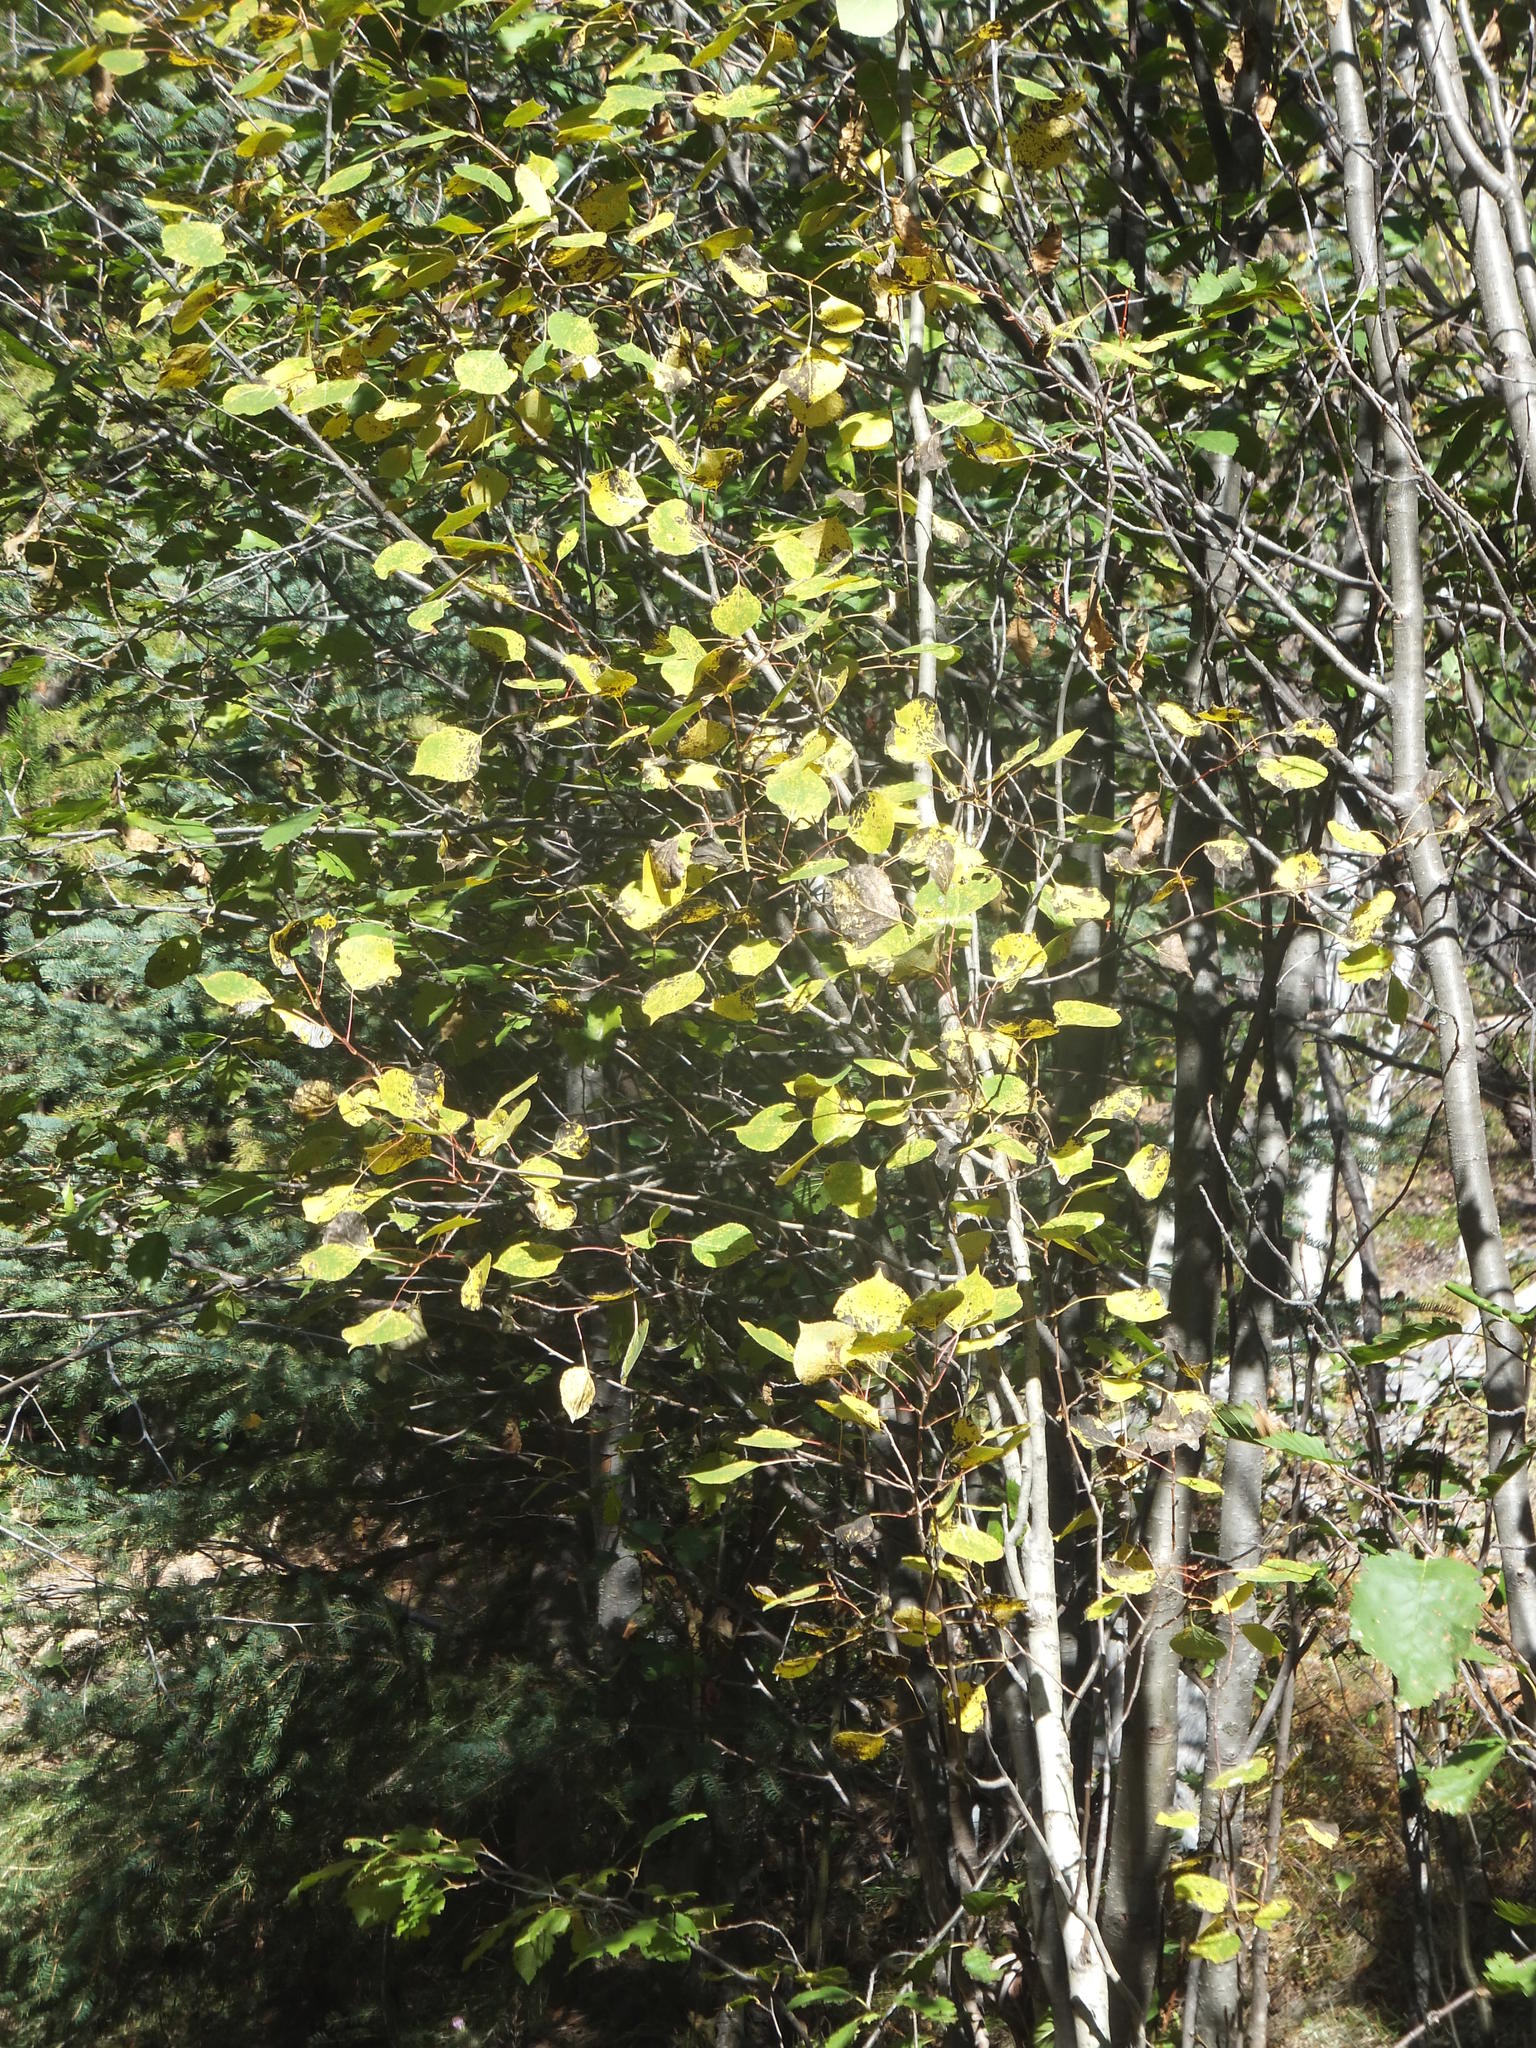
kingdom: Plantae
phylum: Tracheophyta
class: Magnoliopsida
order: Malpighiales
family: Salicaceae
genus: Populus
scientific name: Populus tremuloides
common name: Quaking aspen
